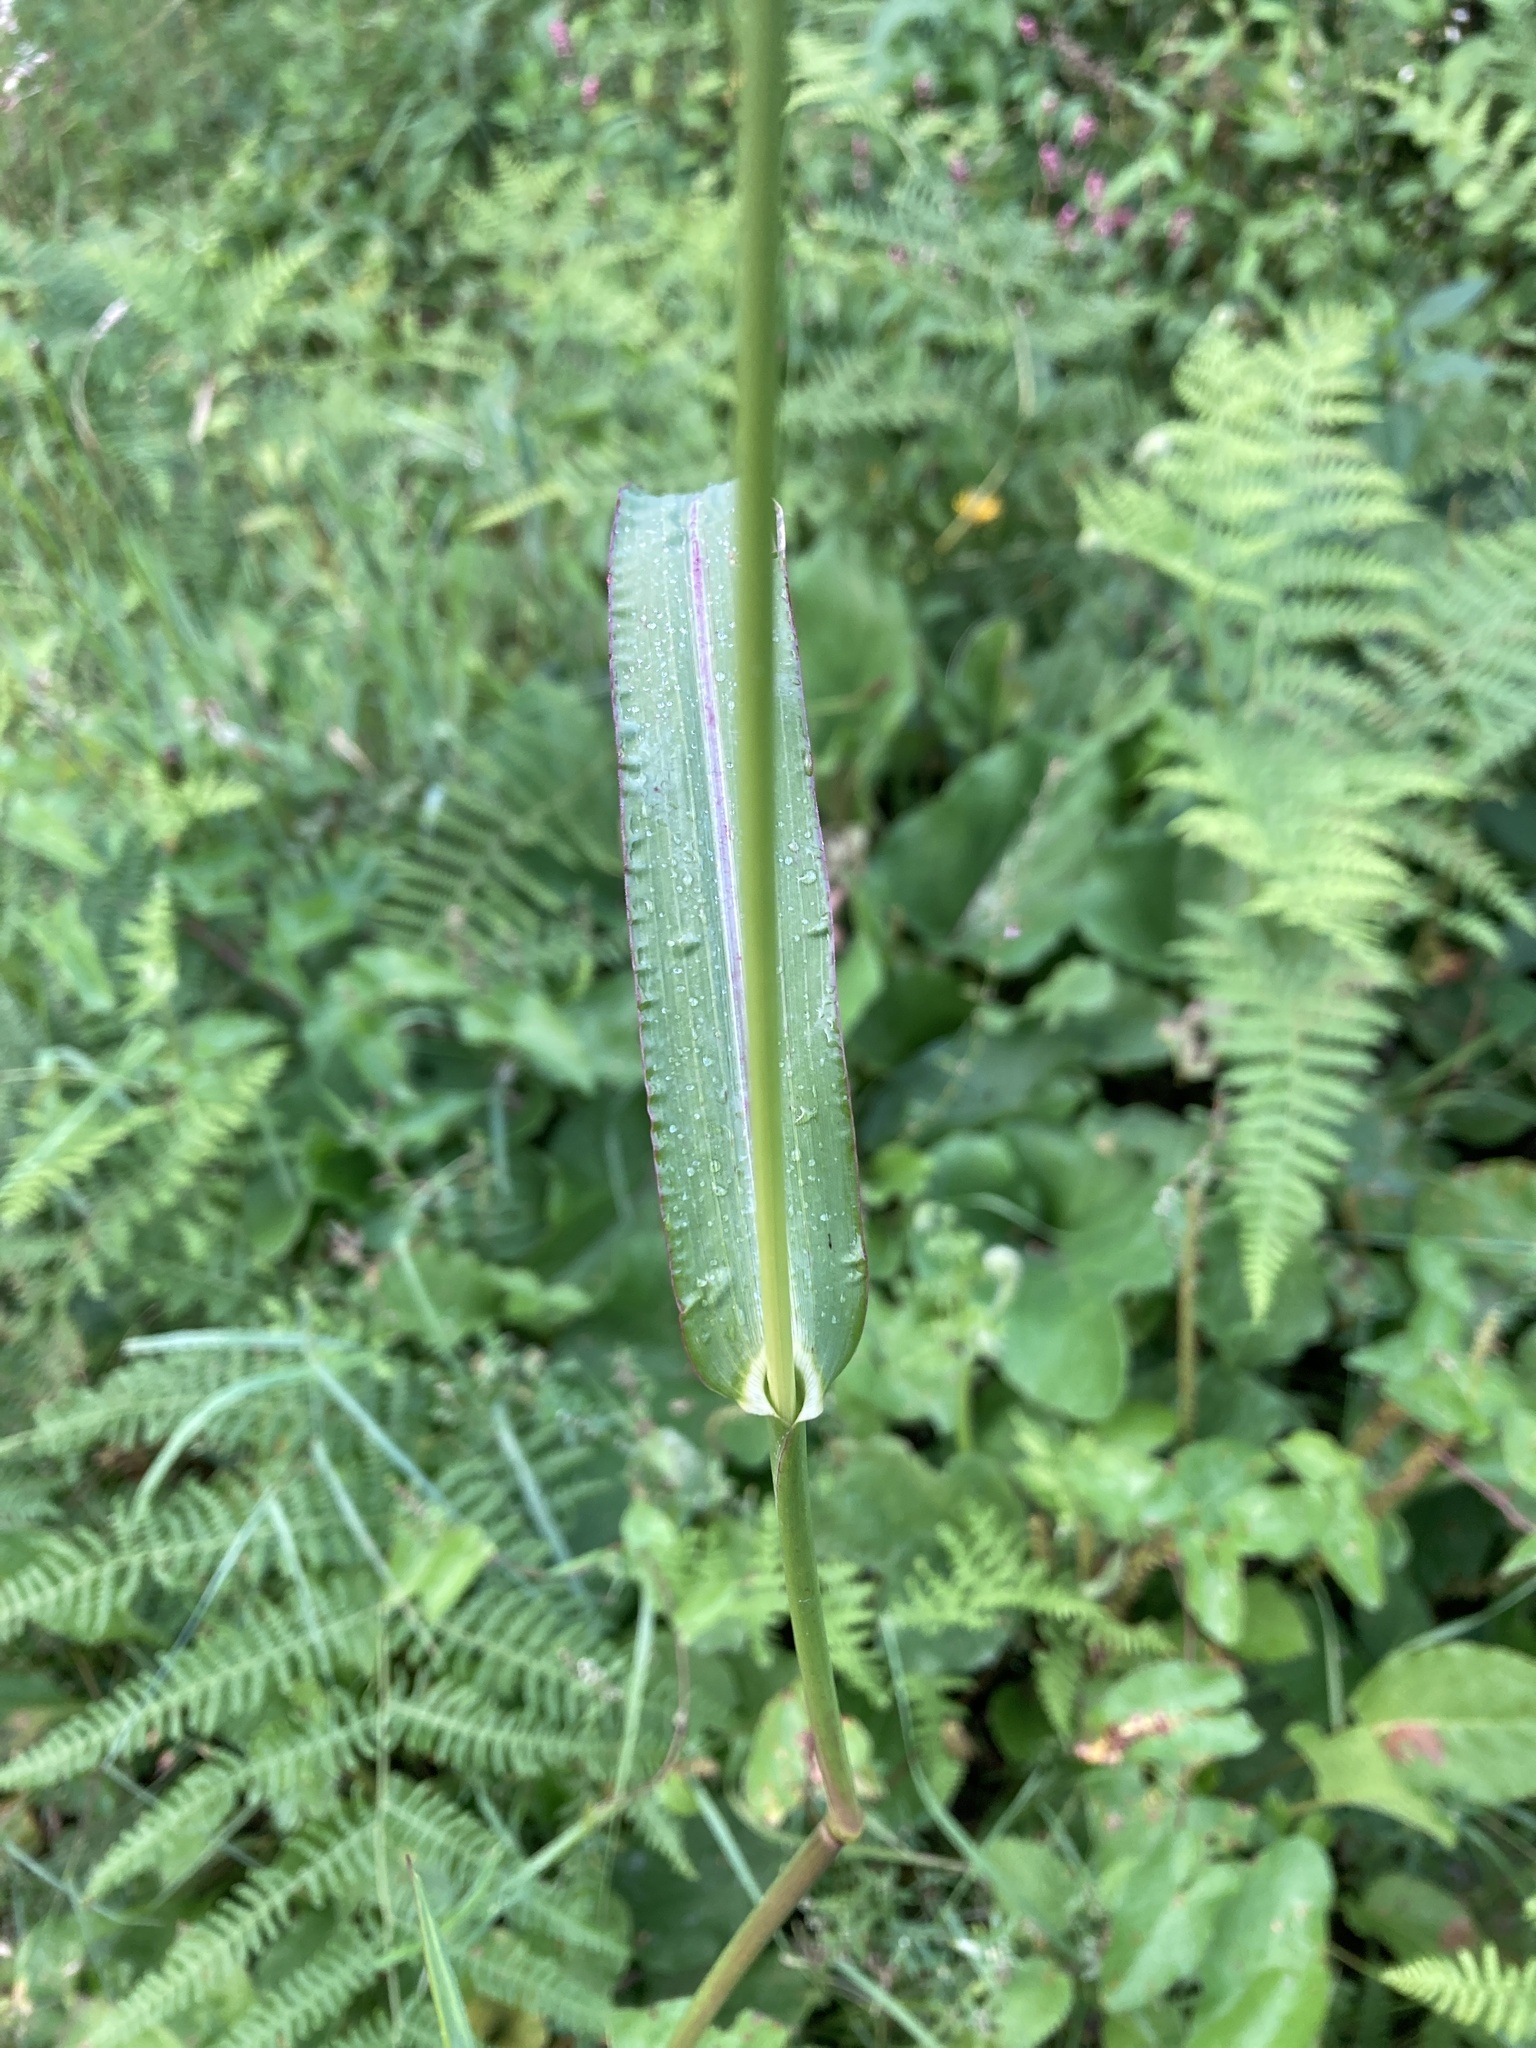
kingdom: Plantae
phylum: Tracheophyta
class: Liliopsida
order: Poales
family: Poaceae
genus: Echinochloa
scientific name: Echinochloa crus-galli
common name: Cockspur
